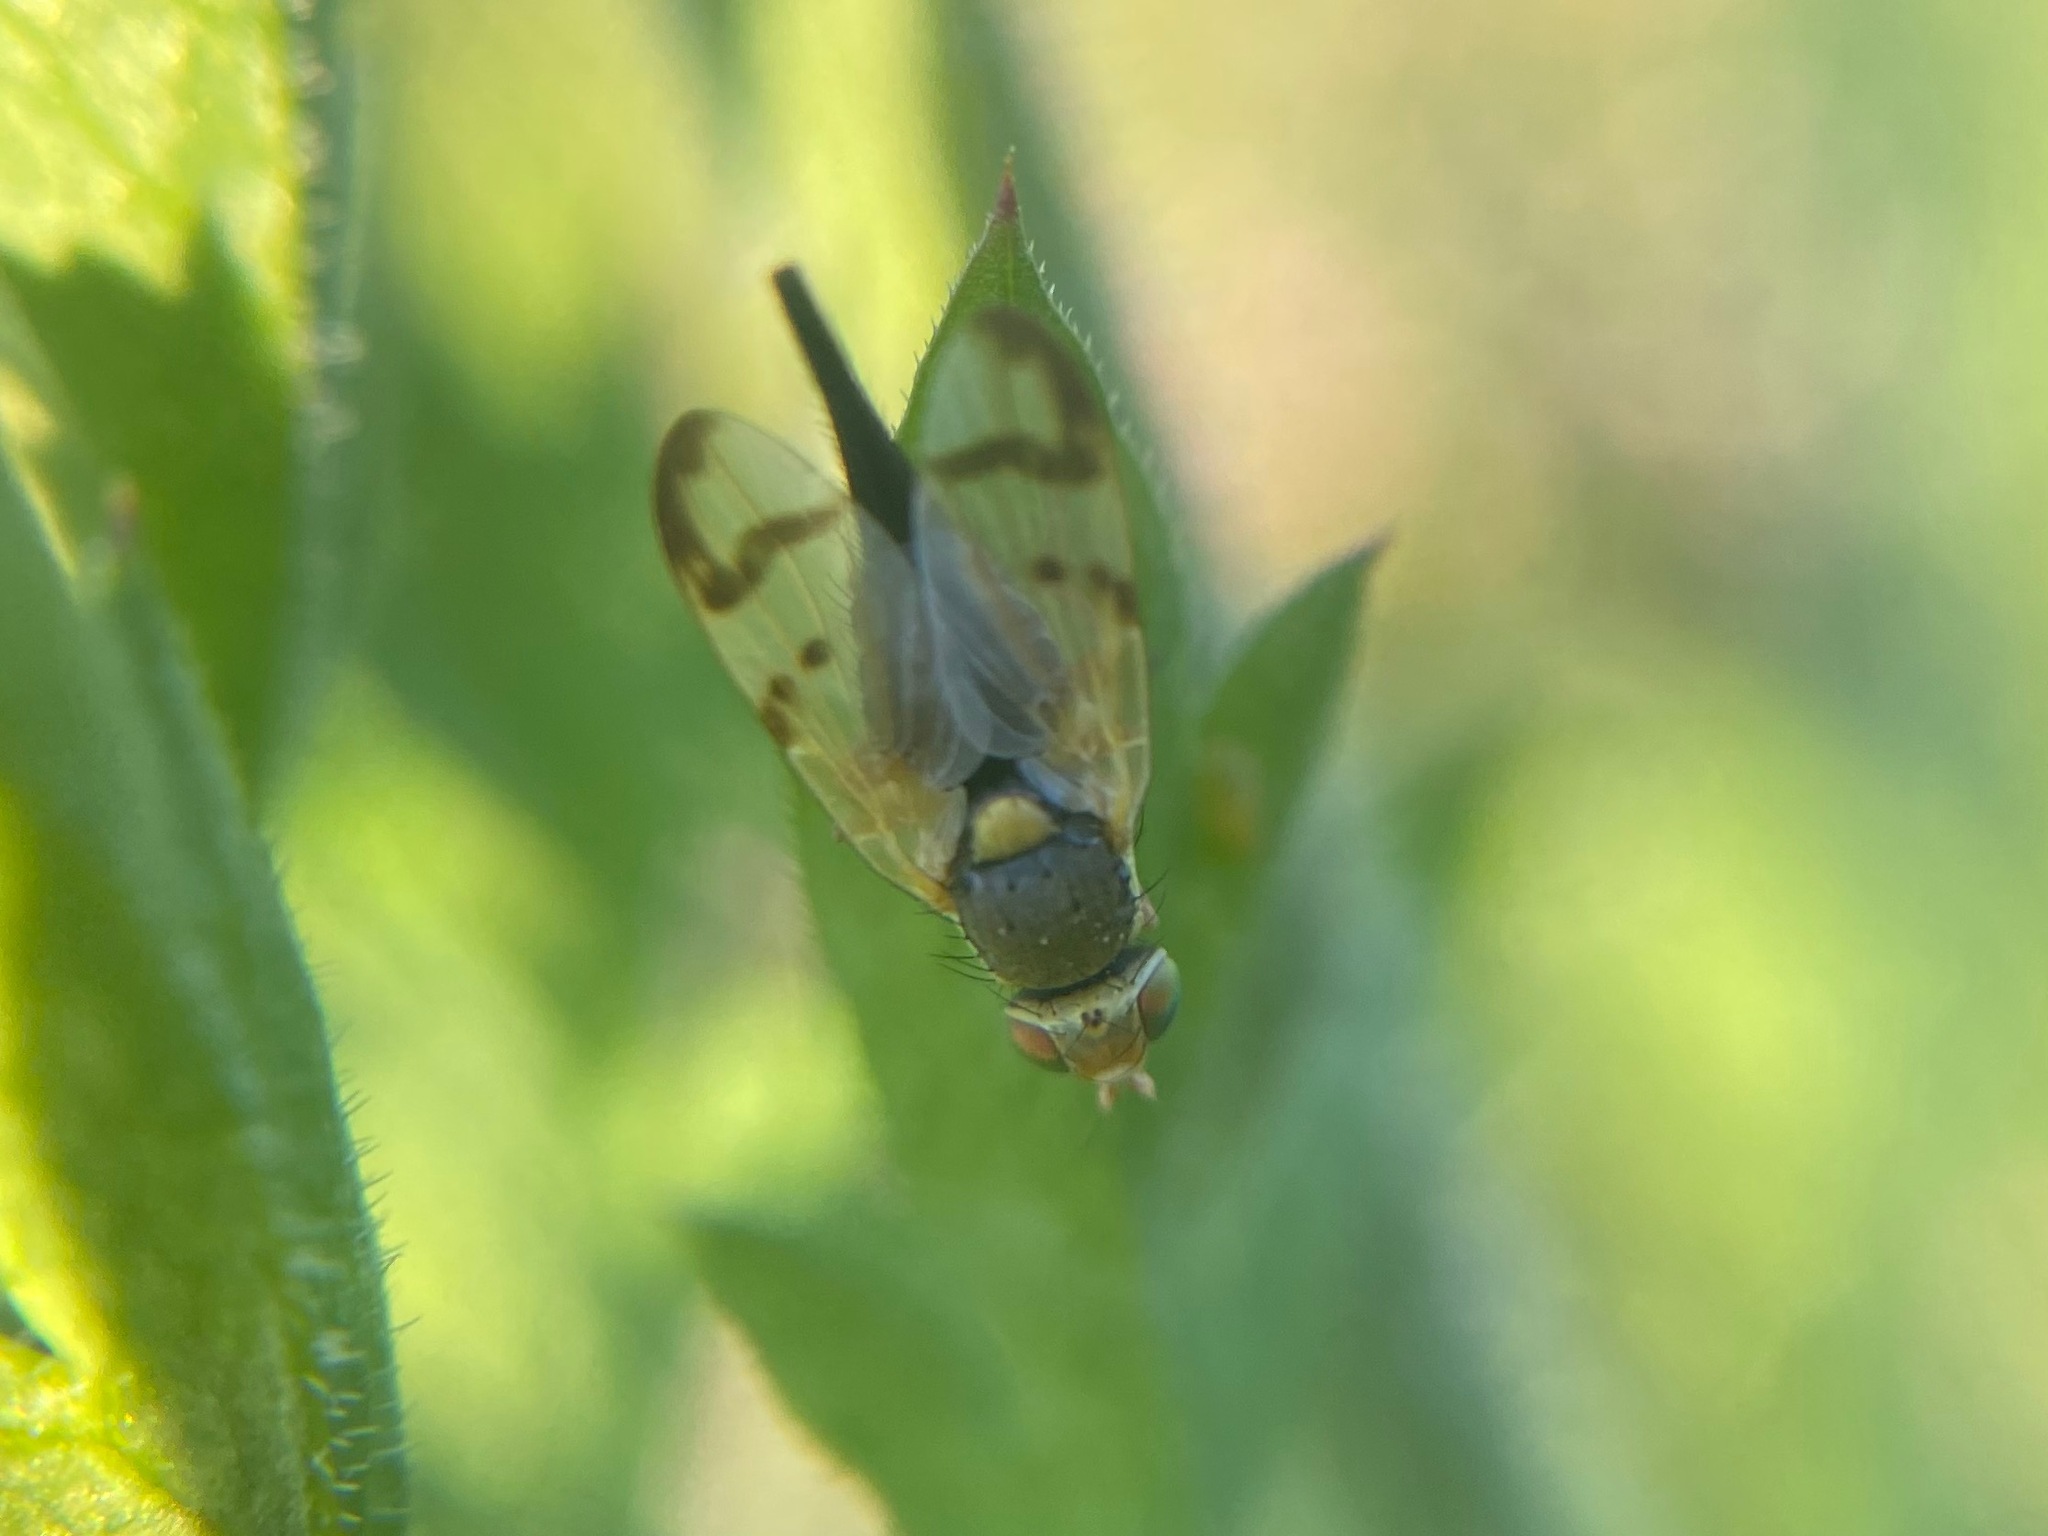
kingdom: Animalia
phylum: Arthropoda
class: Insecta
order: Diptera
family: Tephritidae
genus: Urophora
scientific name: Urophora stylata
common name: Fruit fly
